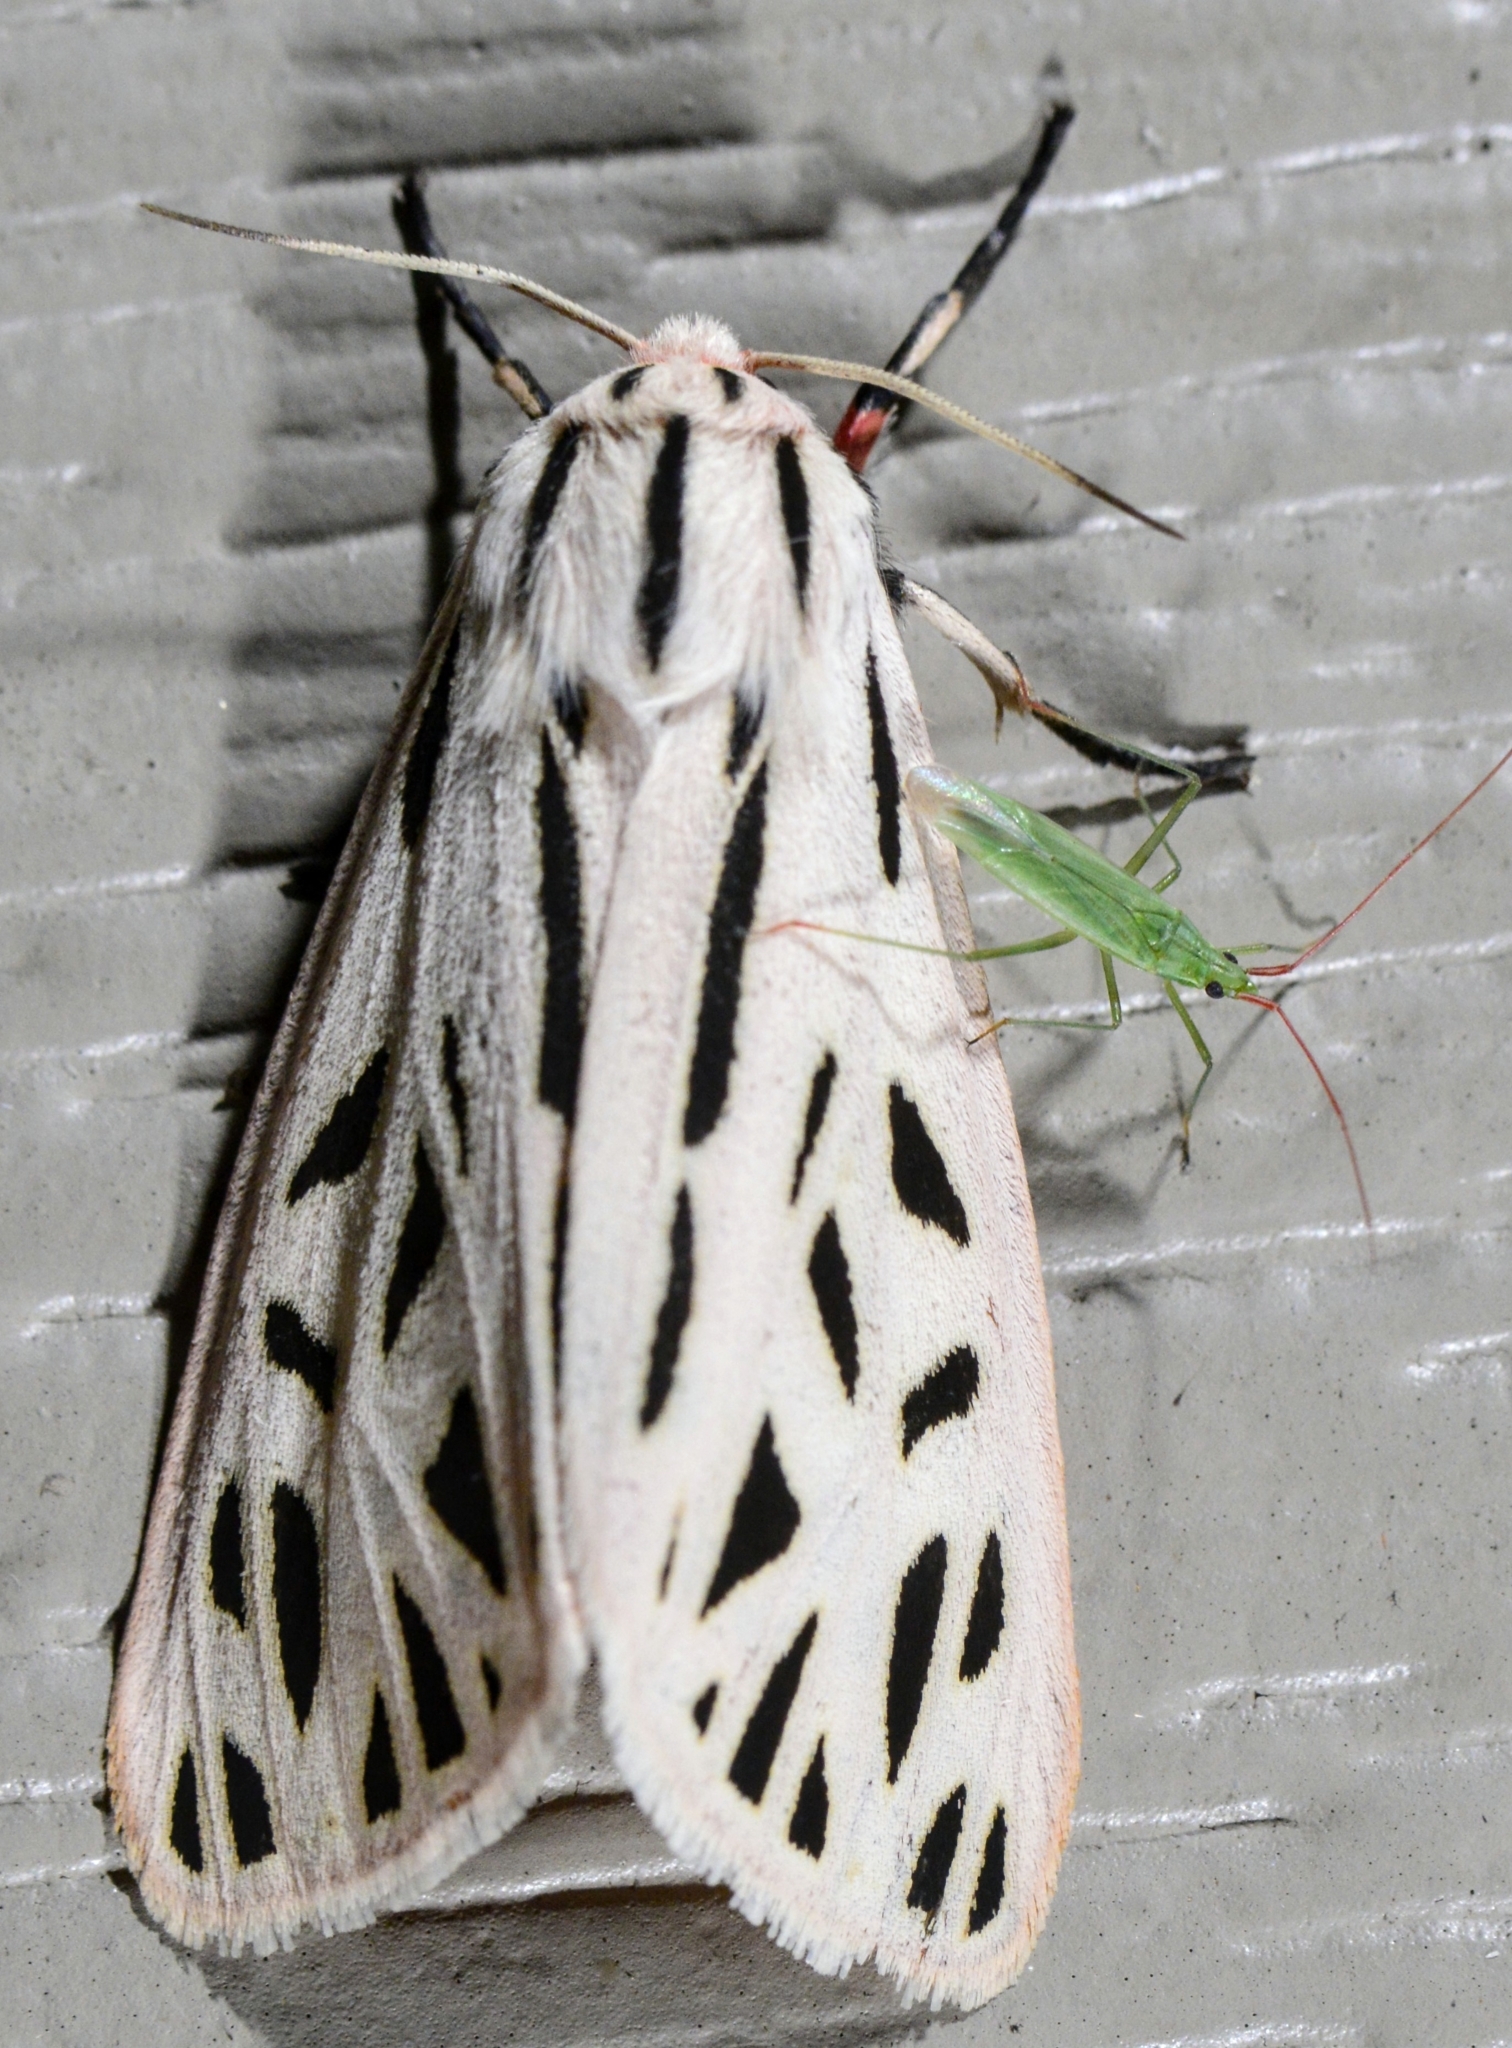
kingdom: Animalia
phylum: Arthropoda
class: Insecta
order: Lepidoptera
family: Erebidae
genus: Apantesis
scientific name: Apantesis arge
